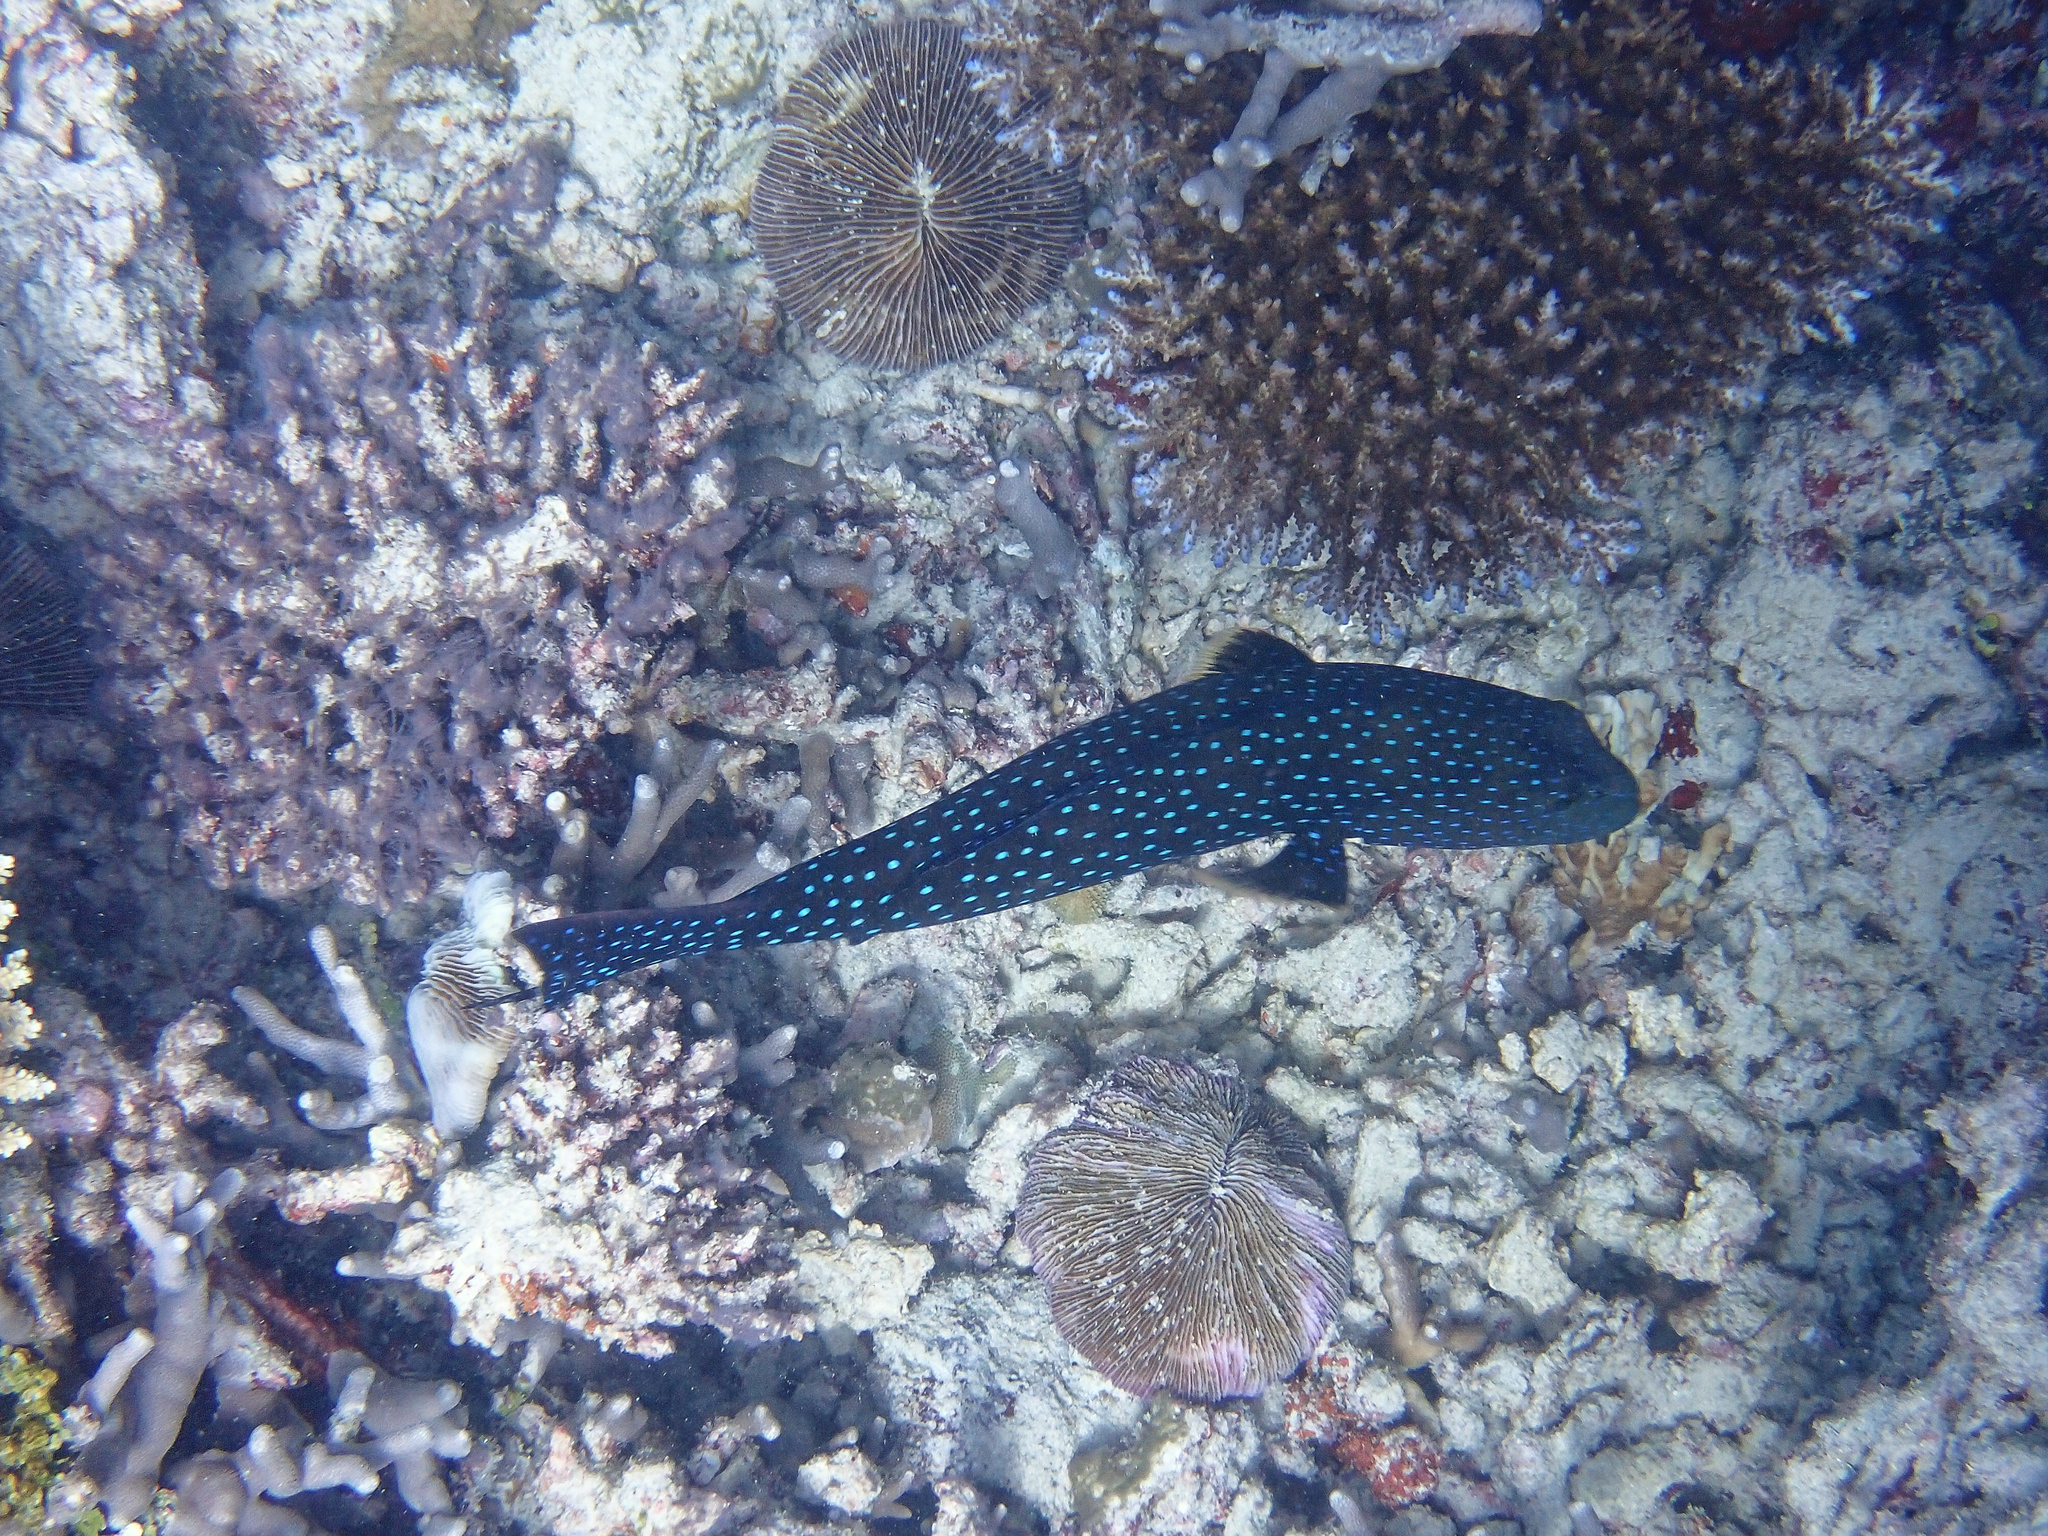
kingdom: Animalia
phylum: Chordata
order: Perciformes
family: Serranidae
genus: Plectropomus
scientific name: Plectropomus areolatus
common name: Squaretail coralgrouper
